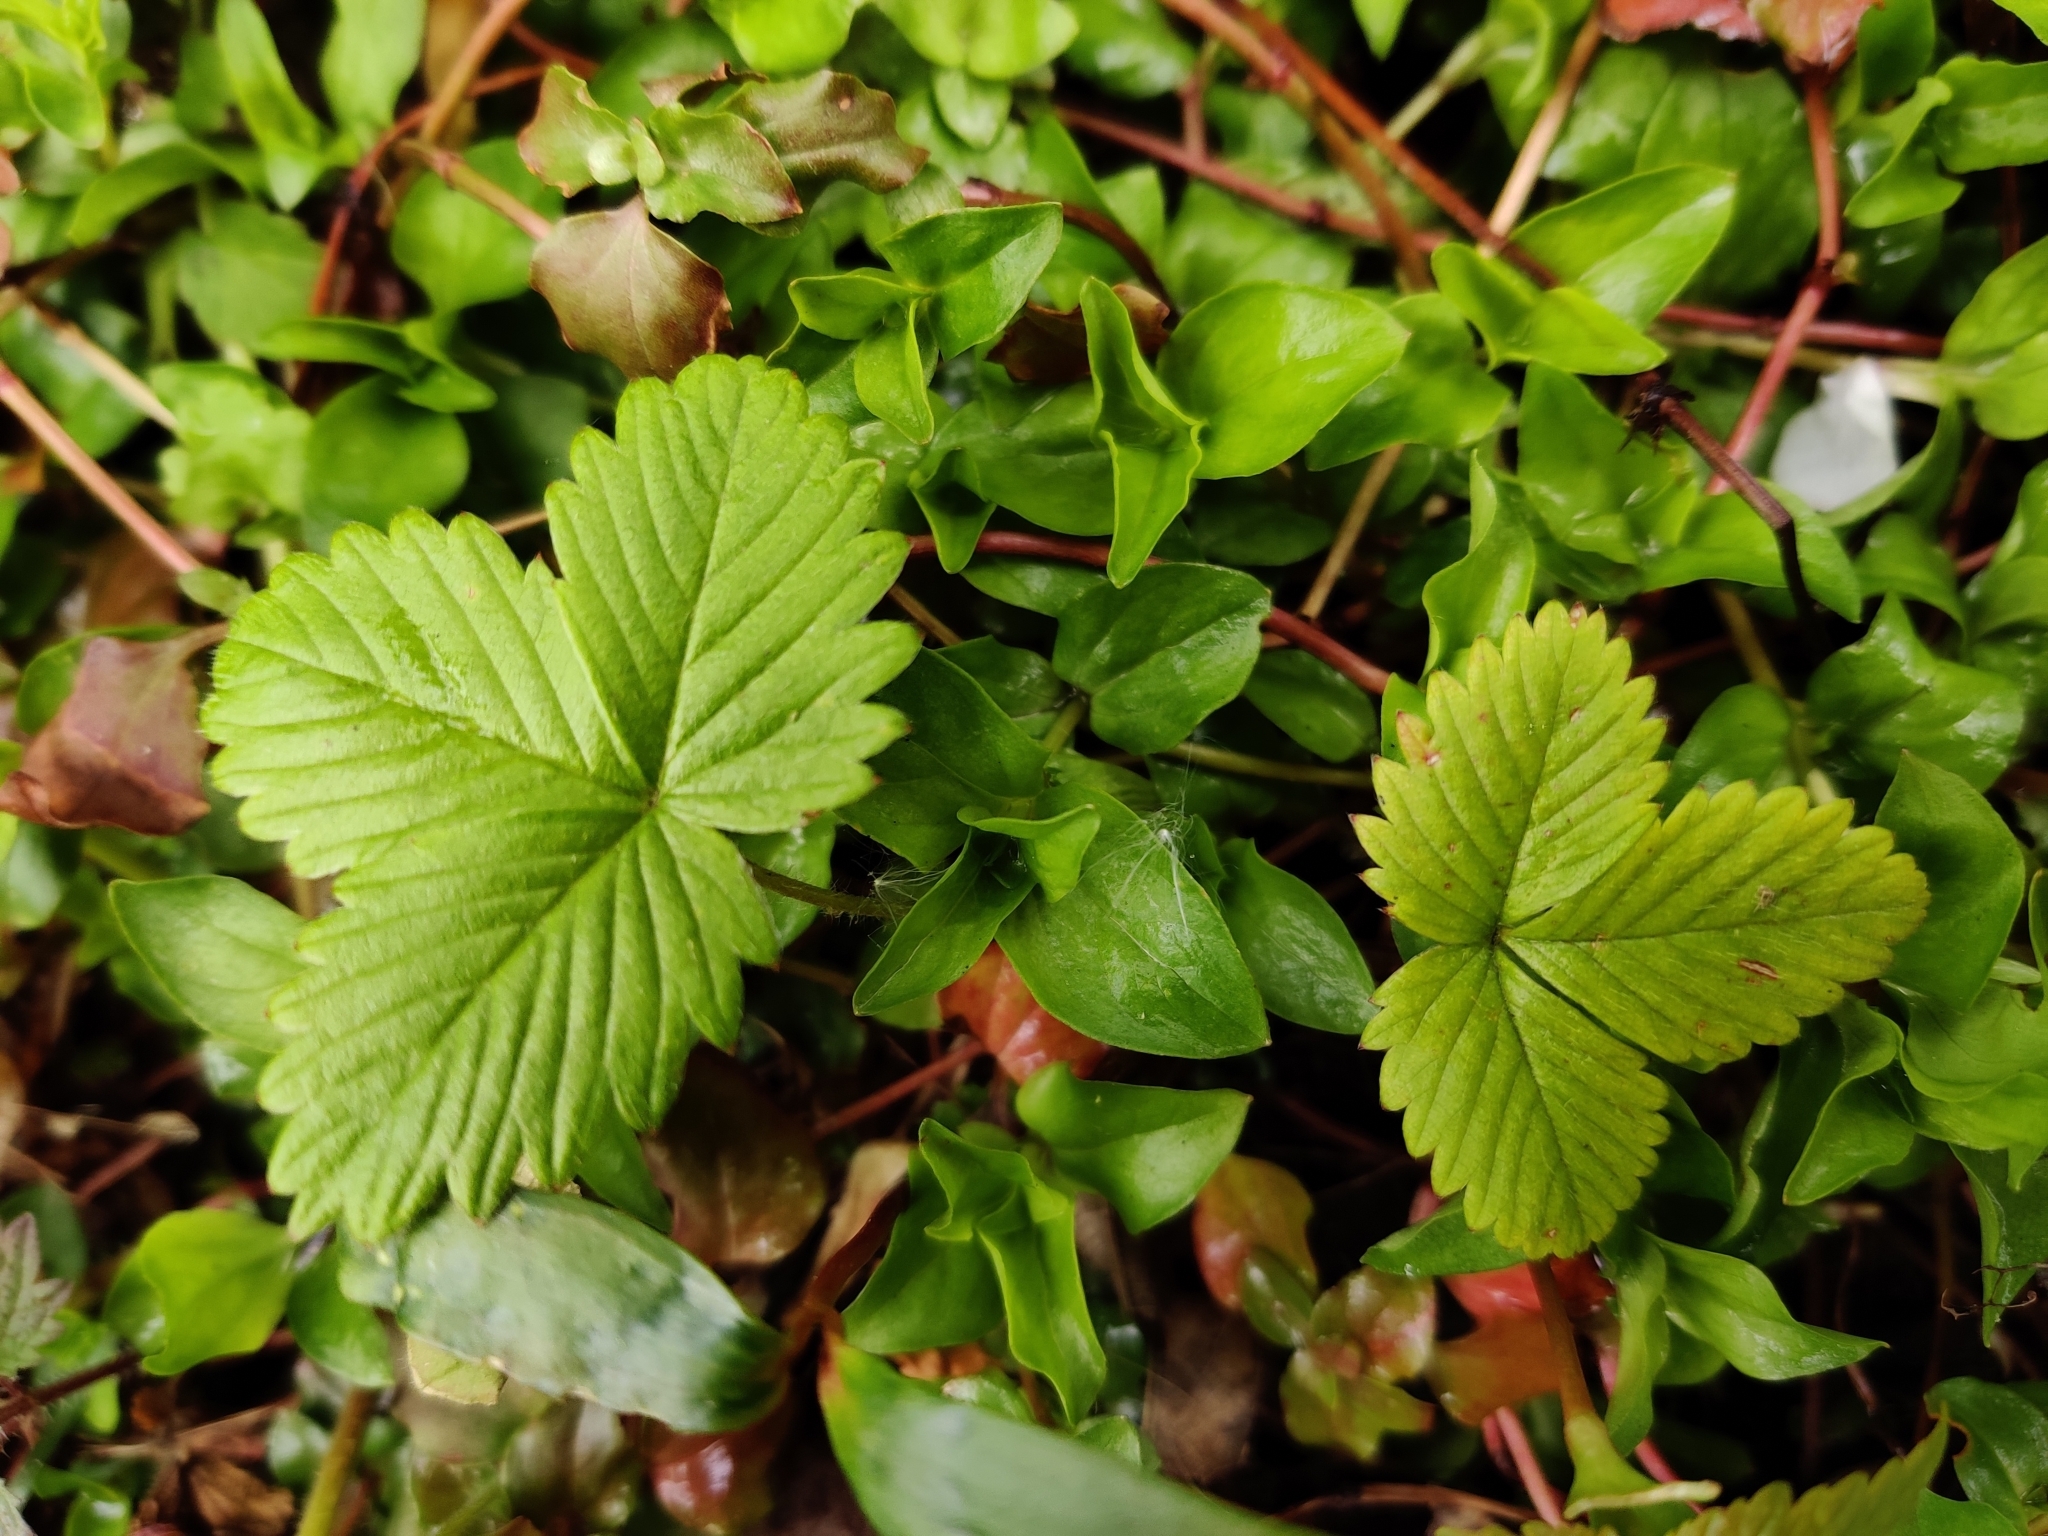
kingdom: Plantae
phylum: Tracheophyta
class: Magnoliopsida
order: Rosales
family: Rosaceae
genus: Fragaria
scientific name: Fragaria vesca
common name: Wild strawberry
